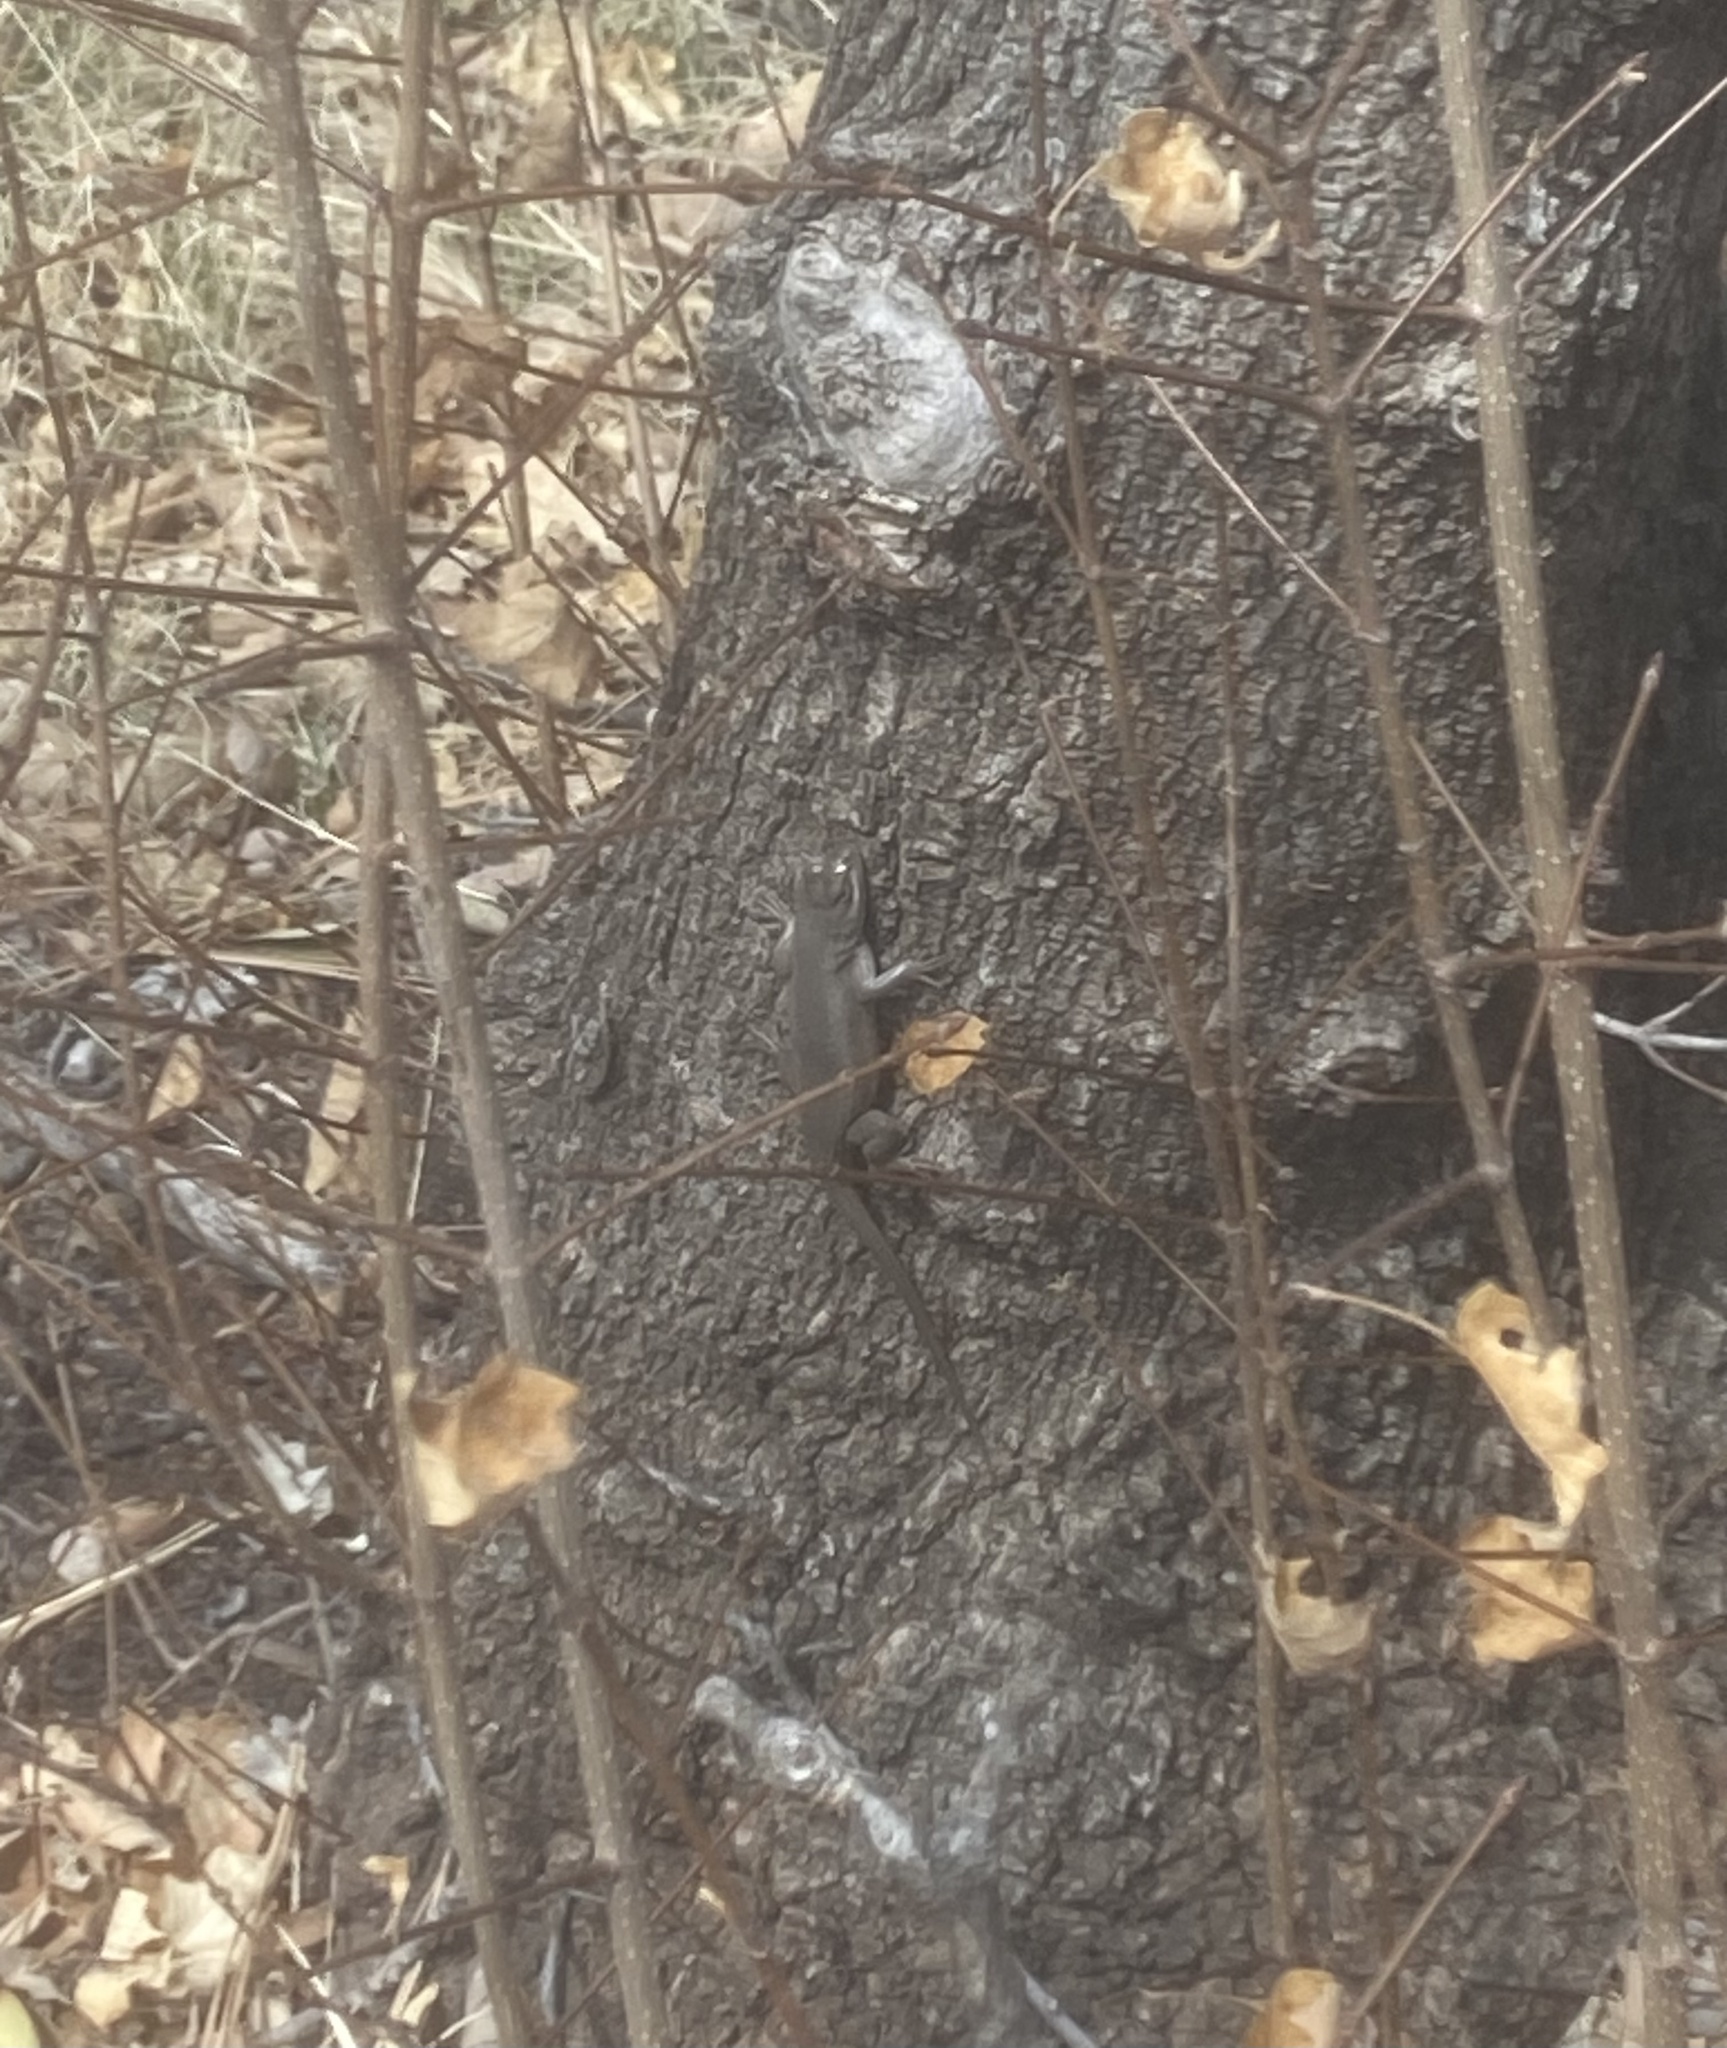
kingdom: Animalia
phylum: Chordata
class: Squamata
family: Phrynosomatidae
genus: Sceloporus
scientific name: Sceloporus cowlesi
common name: White sands prairie lizard
